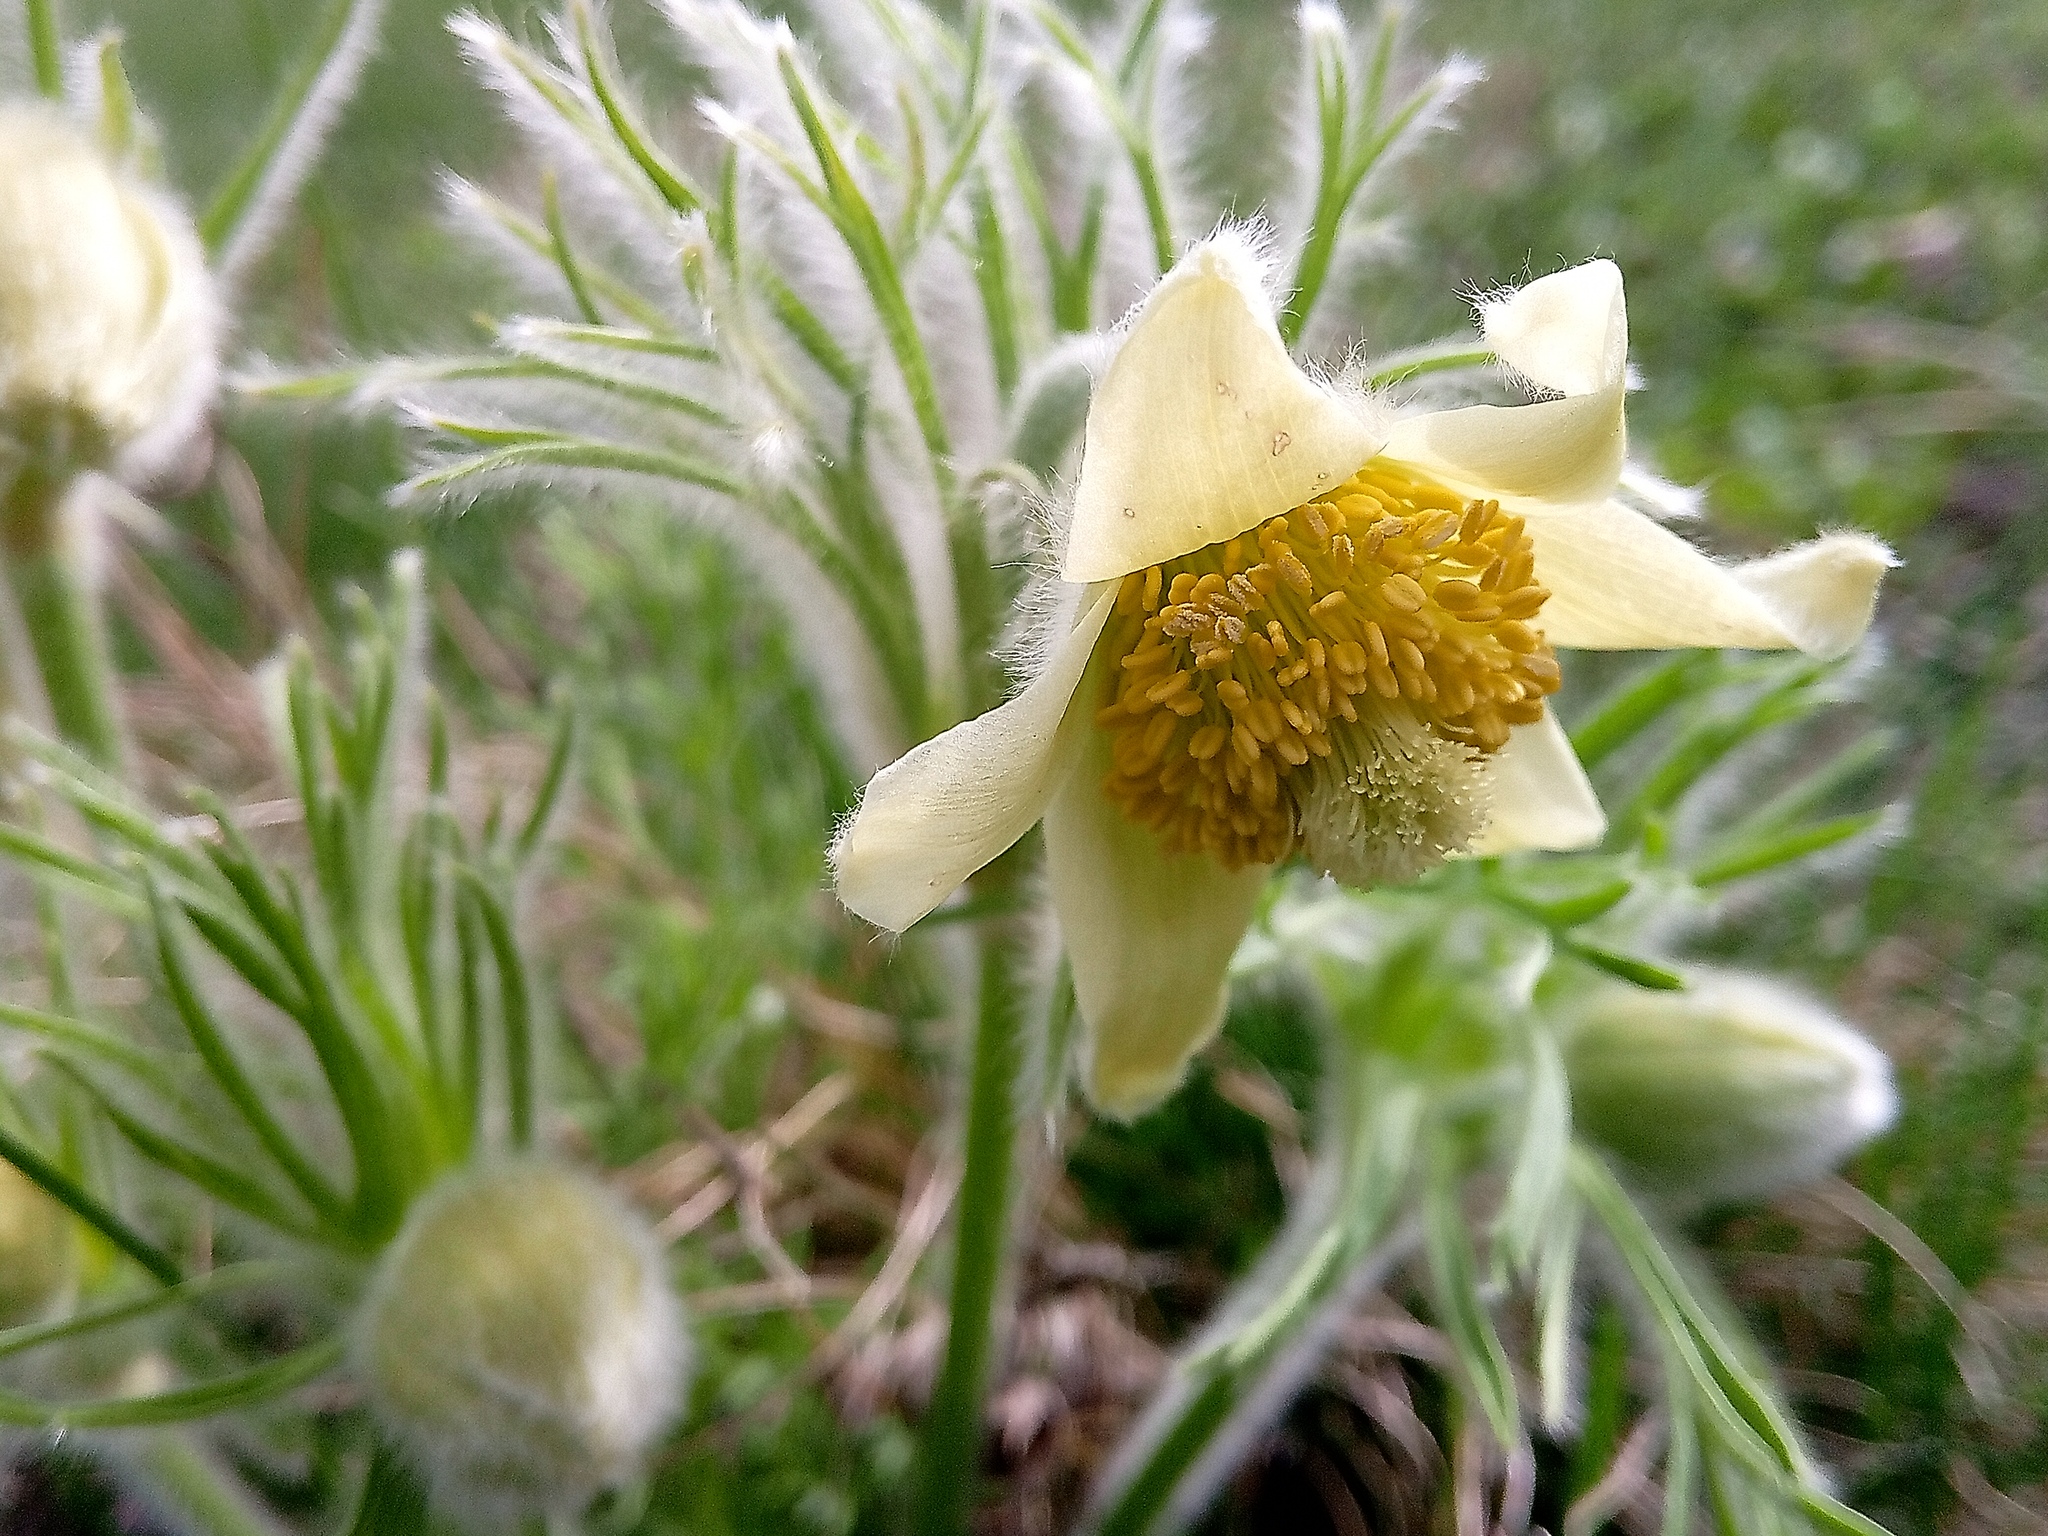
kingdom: Plantae
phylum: Tracheophyta
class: Magnoliopsida
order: Ranunculales
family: Ranunculaceae
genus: Pulsatilla
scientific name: Pulsatilla pratensis
